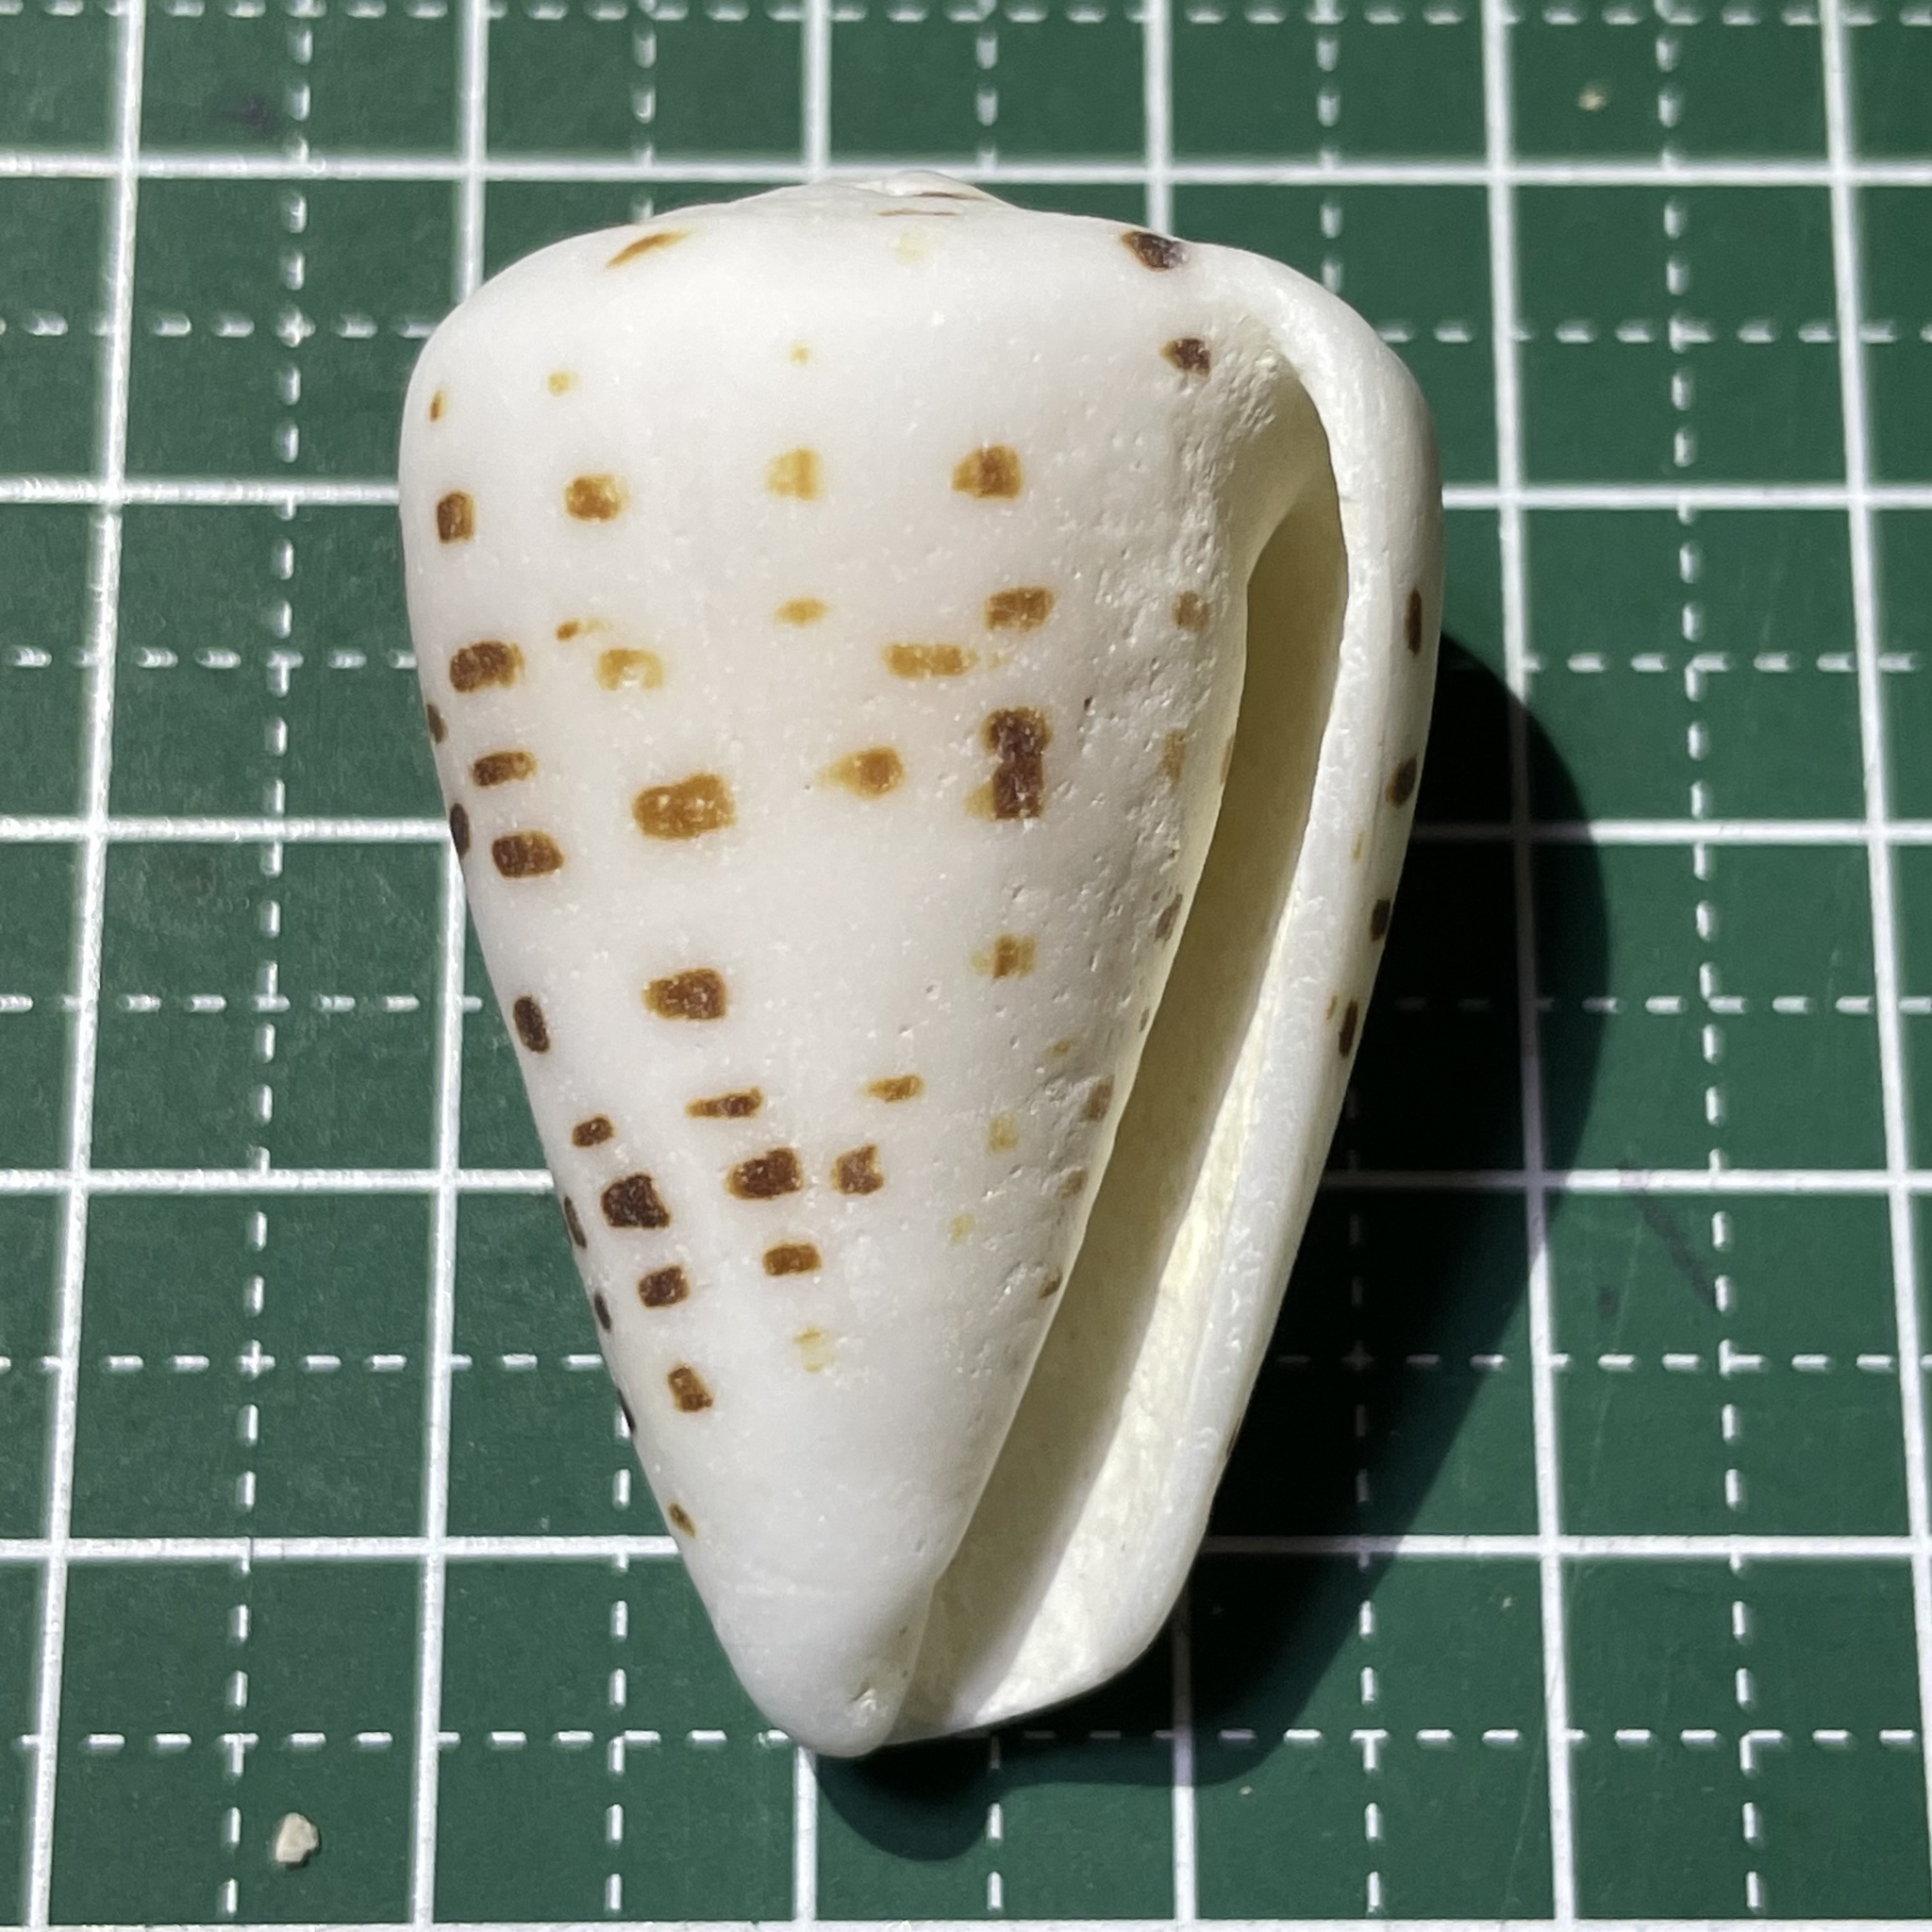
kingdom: Animalia
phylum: Mollusca
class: Gastropoda
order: Neogastropoda
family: Conidae
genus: Conus
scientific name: Conus eburneus
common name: Ivory cone
